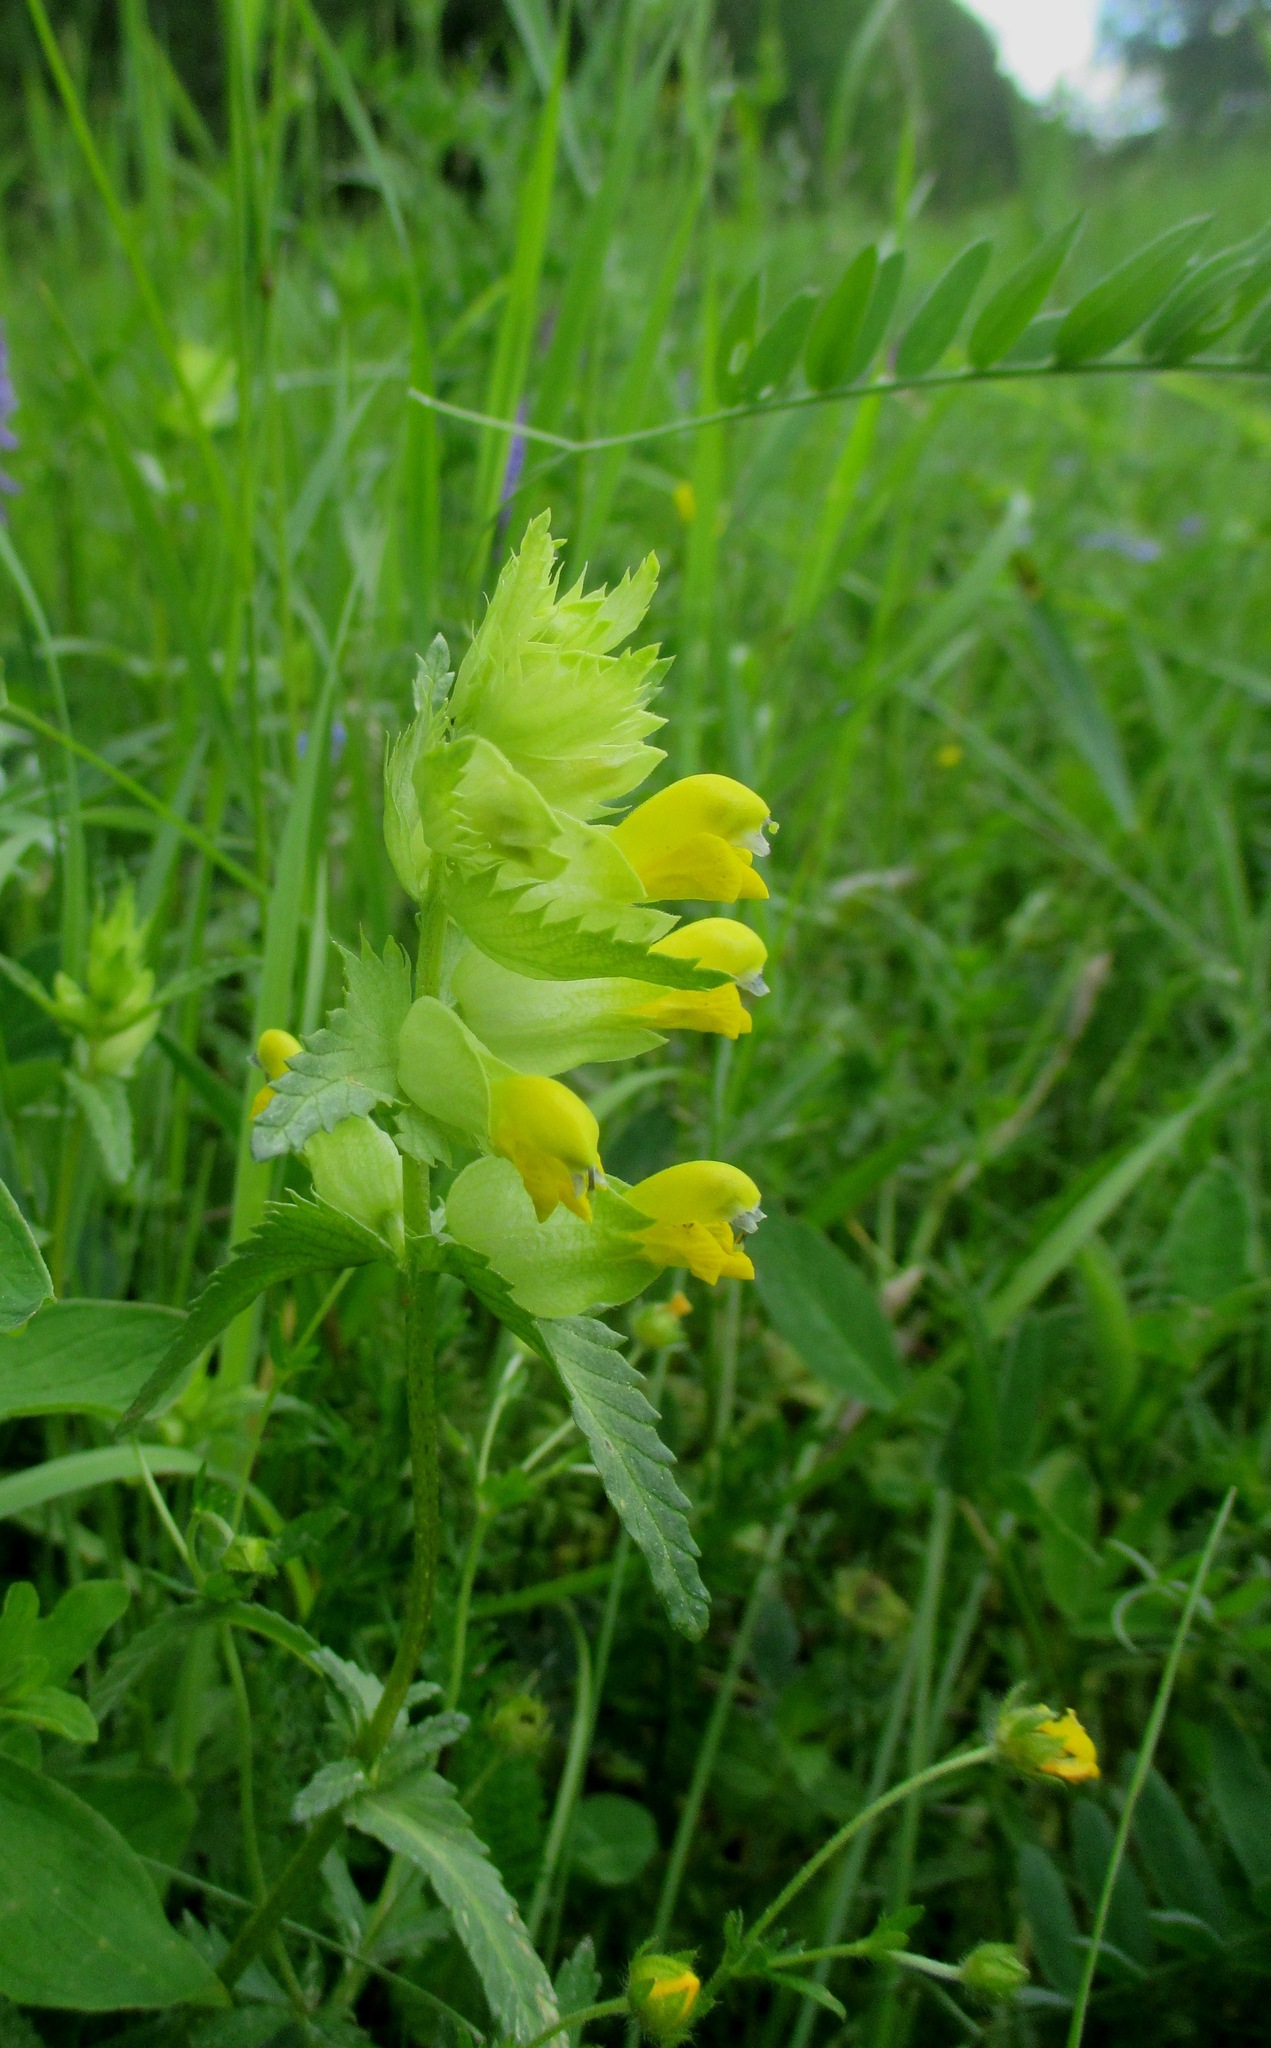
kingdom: Plantae
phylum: Tracheophyta
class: Magnoliopsida
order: Lamiales
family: Orobanchaceae
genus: Rhinanthus
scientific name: Rhinanthus serotinus
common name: Late-flowering yellow rattle
